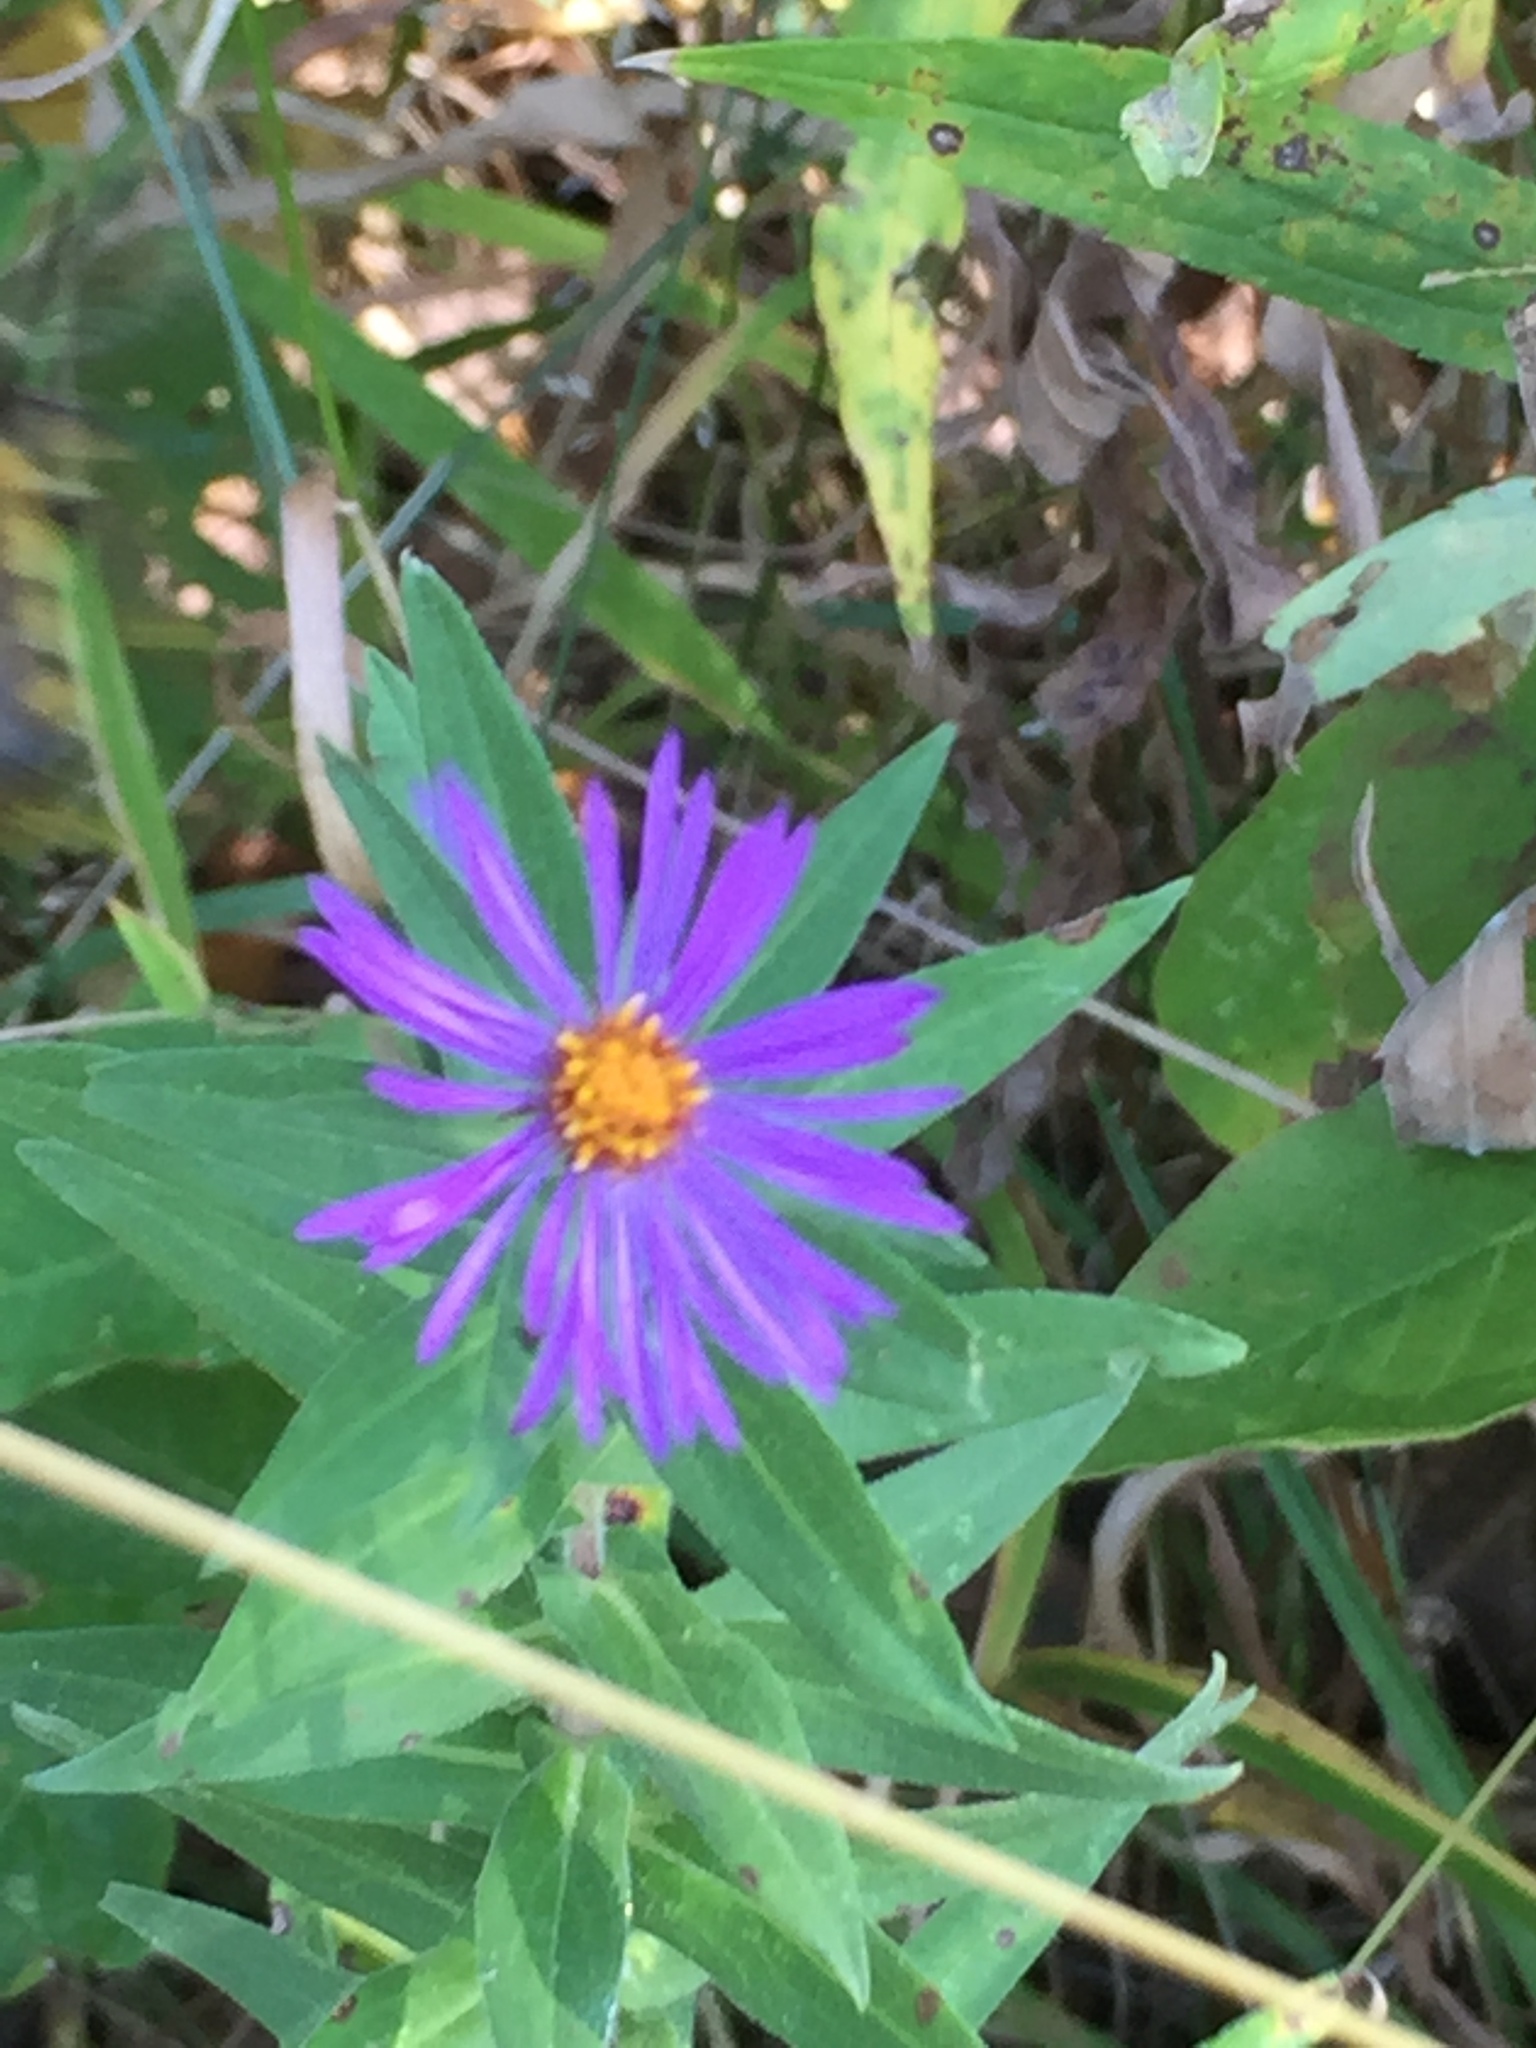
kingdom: Plantae
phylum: Tracheophyta
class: Magnoliopsida
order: Asterales
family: Asteraceae
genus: Symphyotrichum
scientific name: Symphyotrichum novae-angliae
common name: Michaelmas daisy
